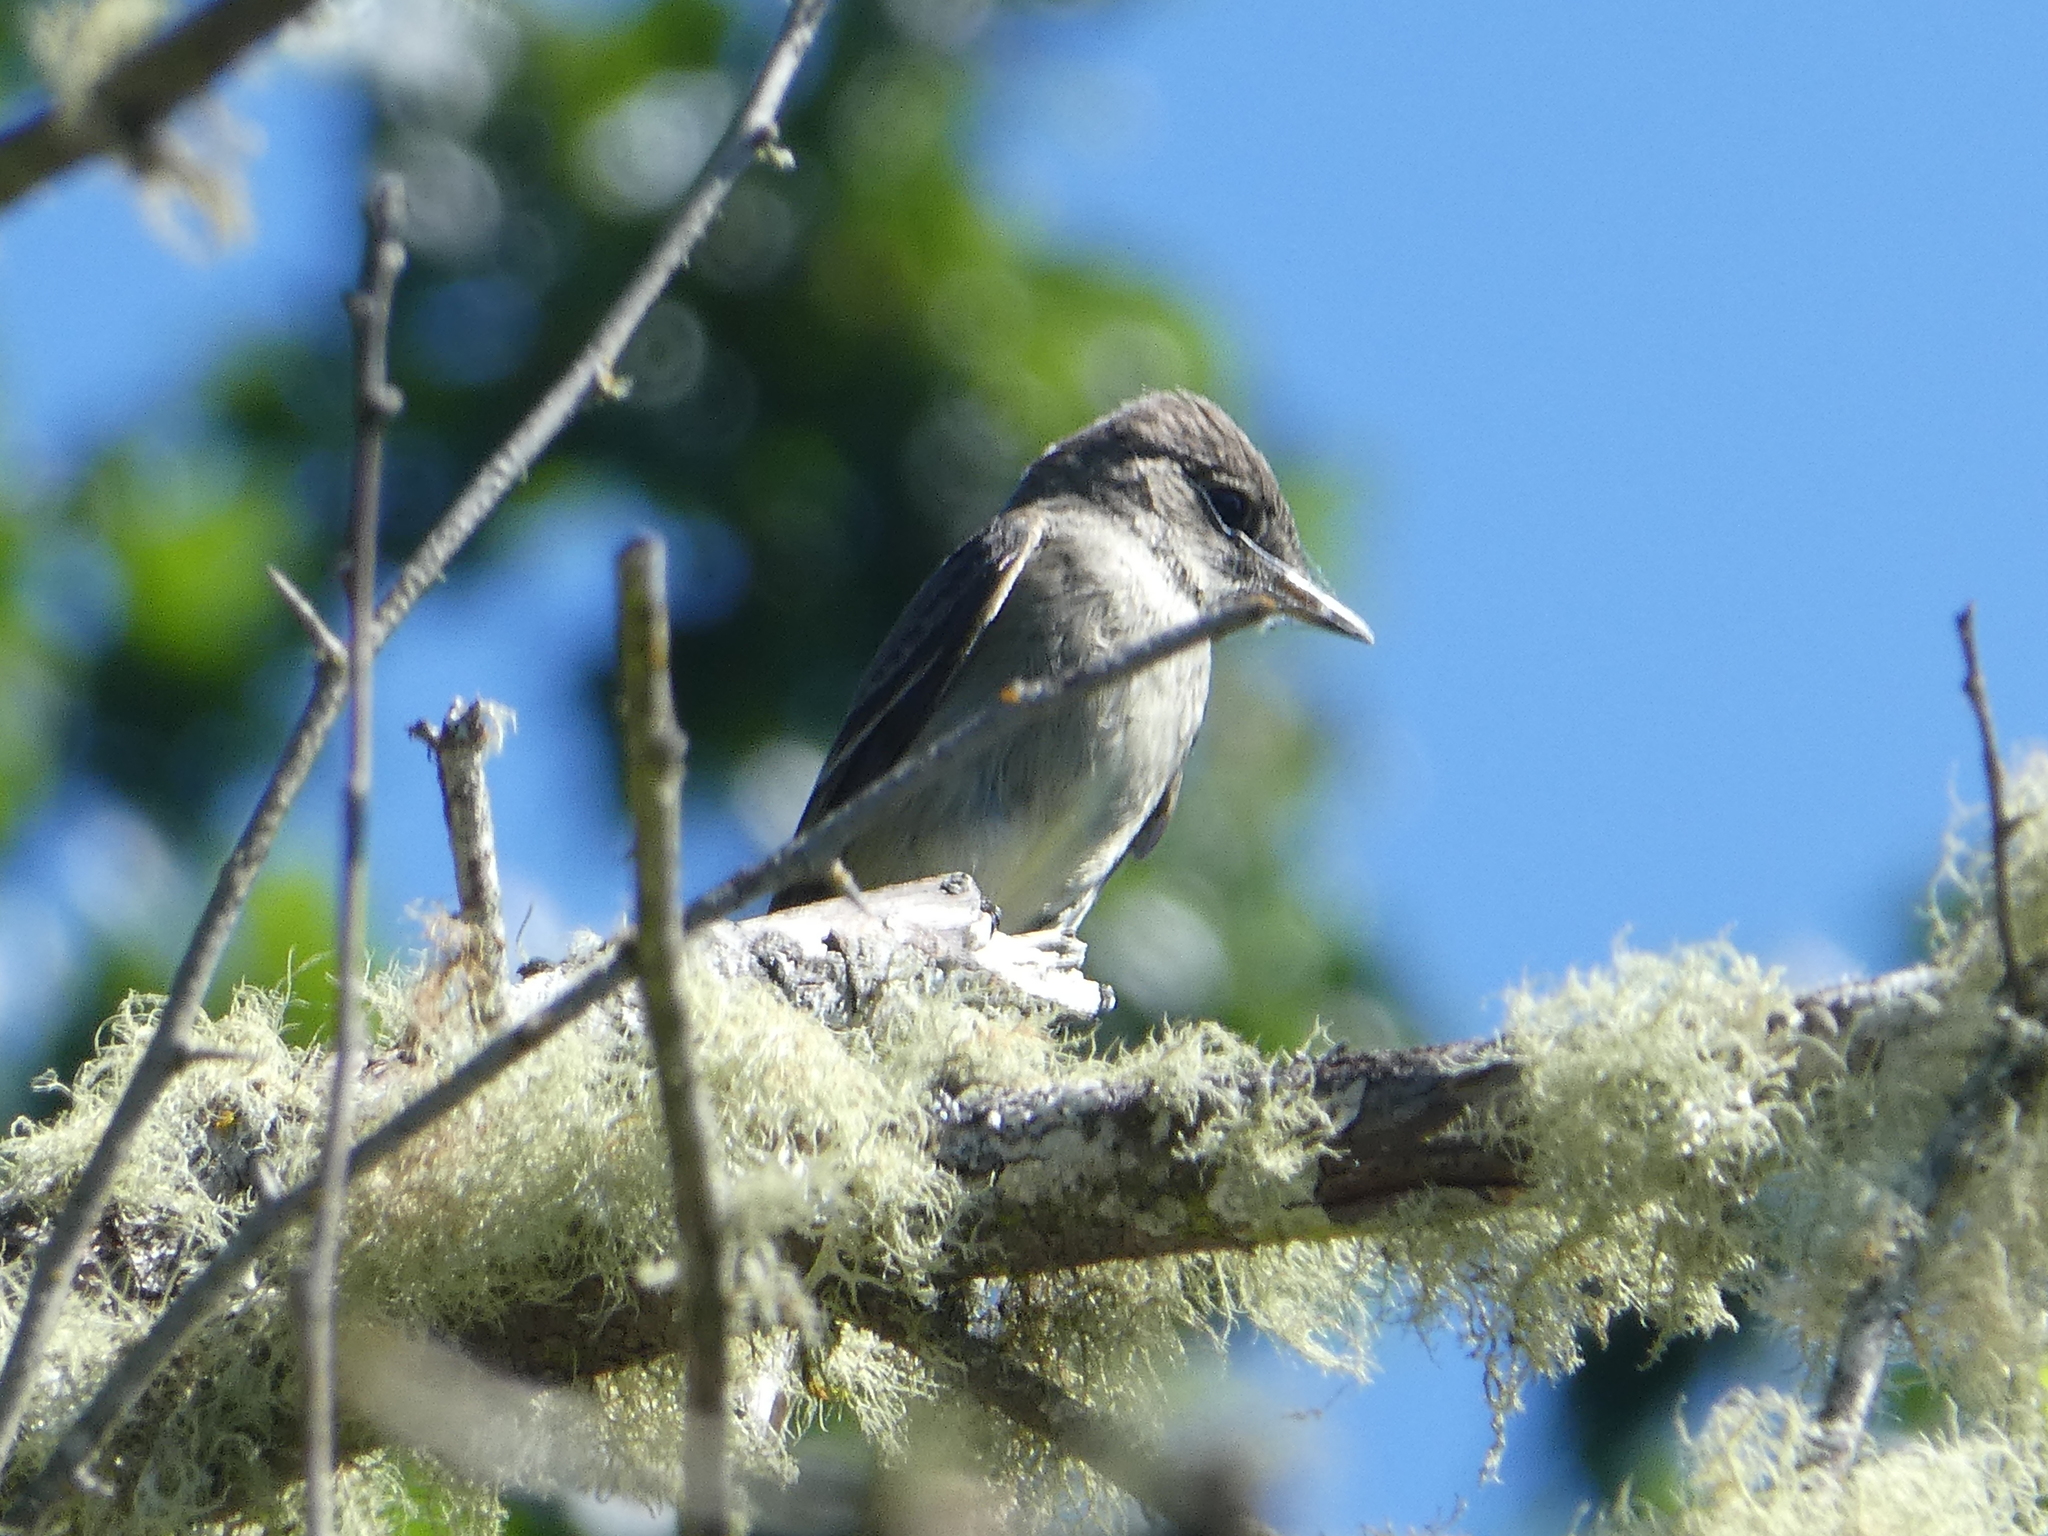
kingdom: Animalia
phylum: Chordata
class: Aves
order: Passeriformes
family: Tyrannidae
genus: Contopus
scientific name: Contopus sordidulus
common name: Western wood-pewee
